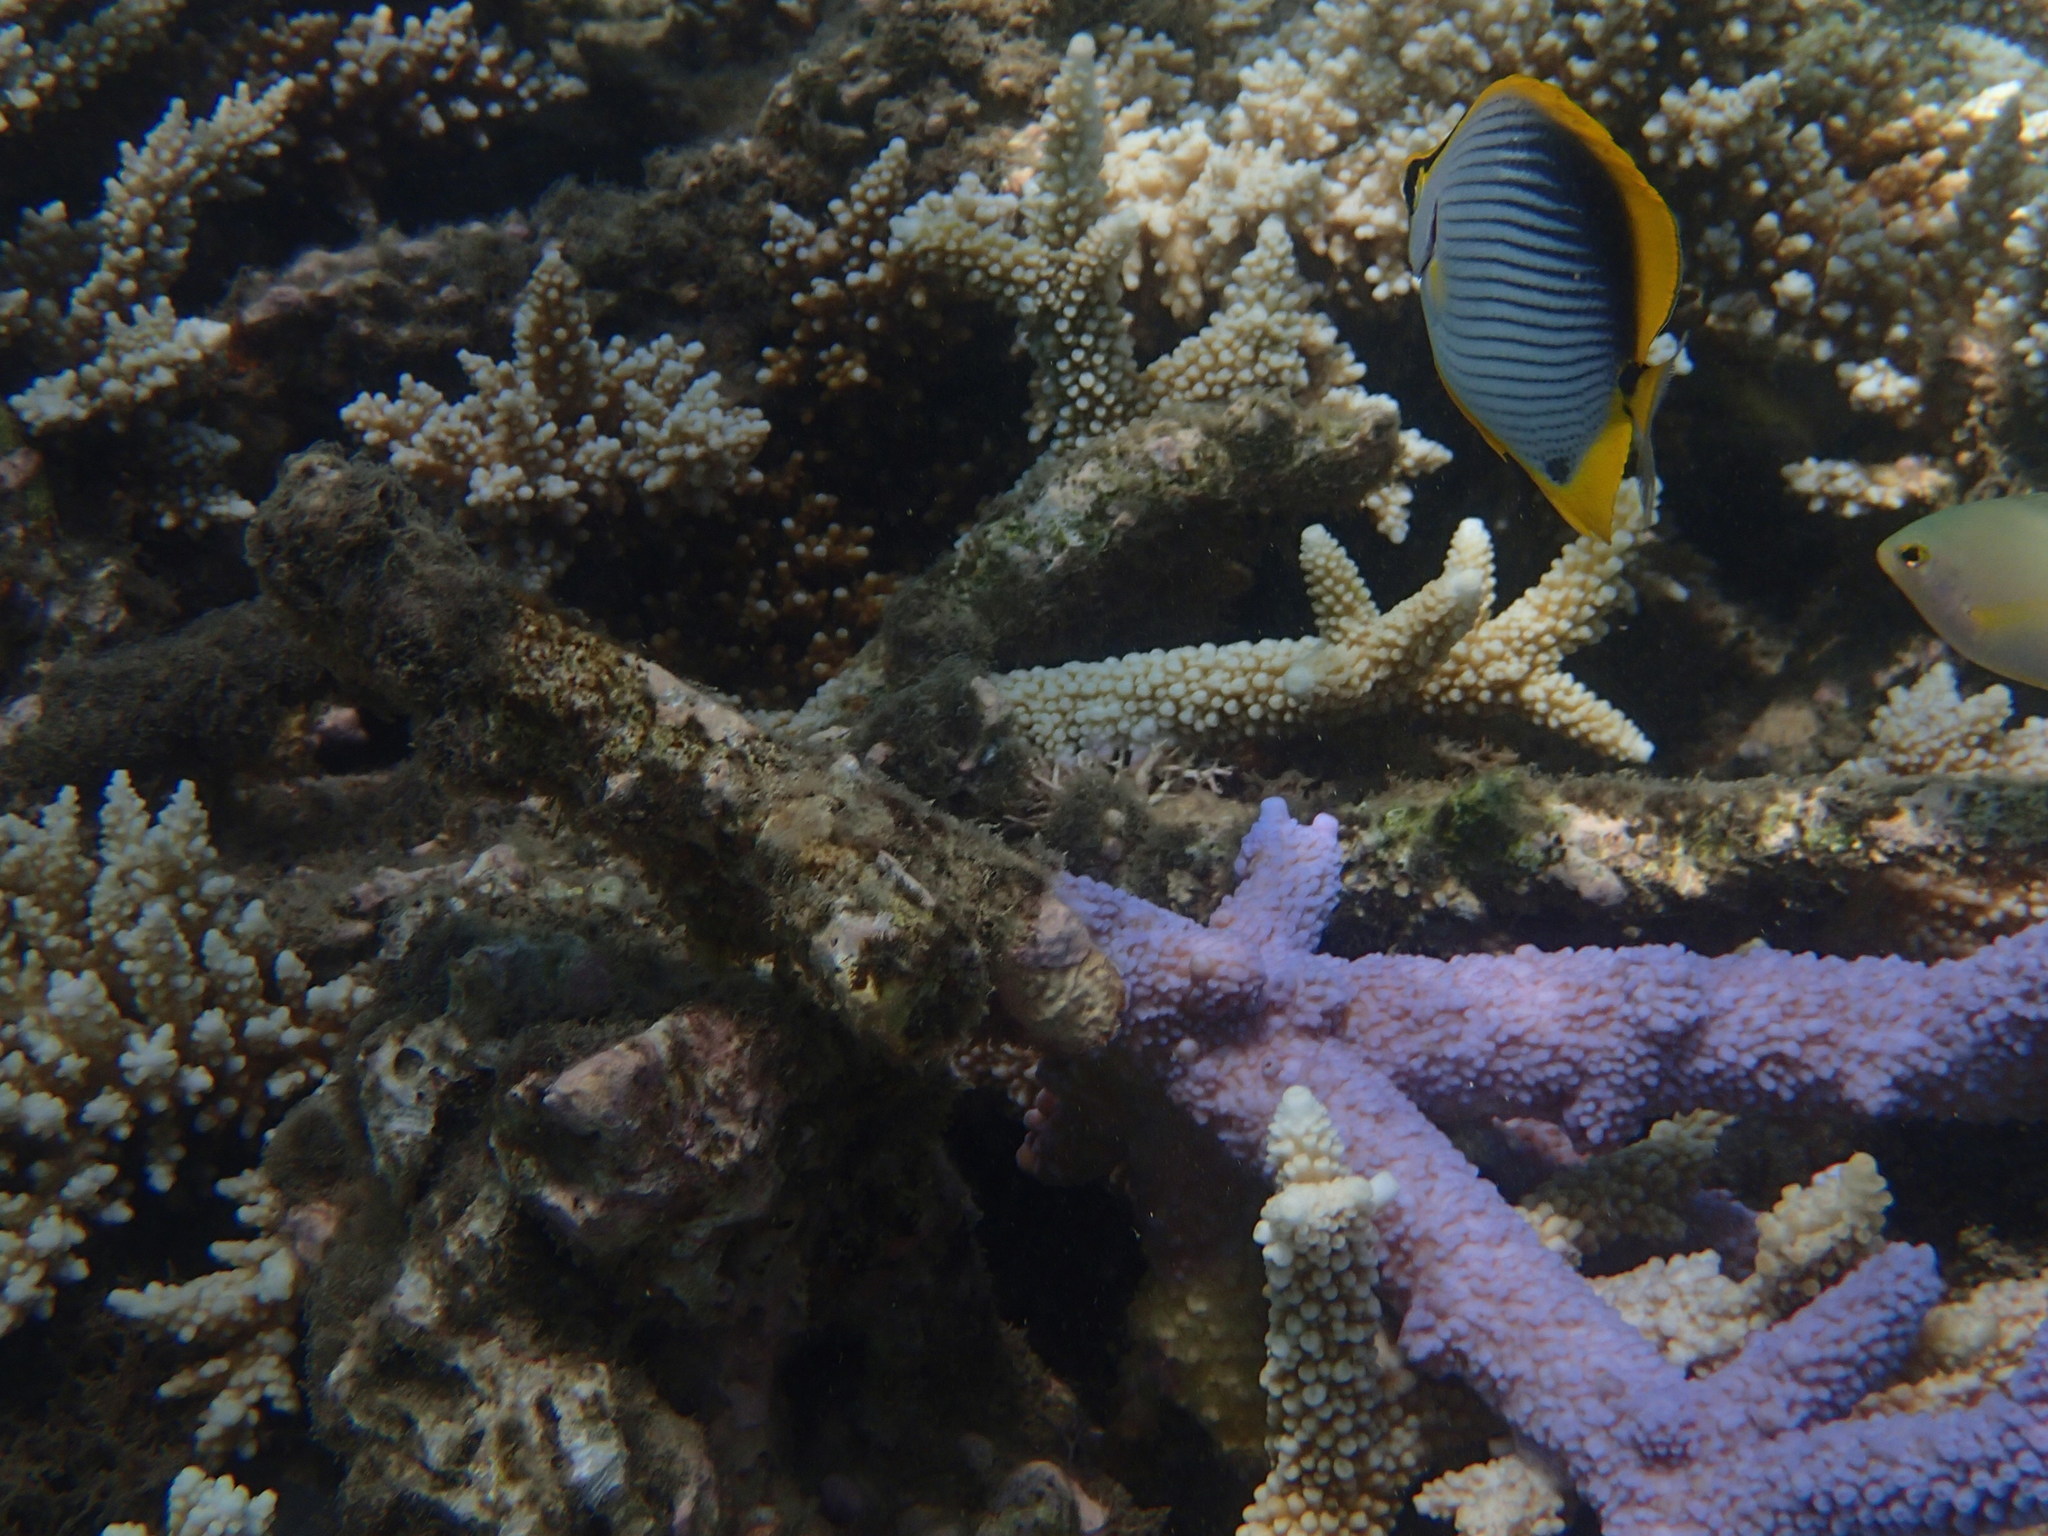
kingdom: Animalia
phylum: Chordata
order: Perciformes
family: Chaetodontidae
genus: Chaetodon
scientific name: Chaetodon melannotus
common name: Blackback butterflyfish
